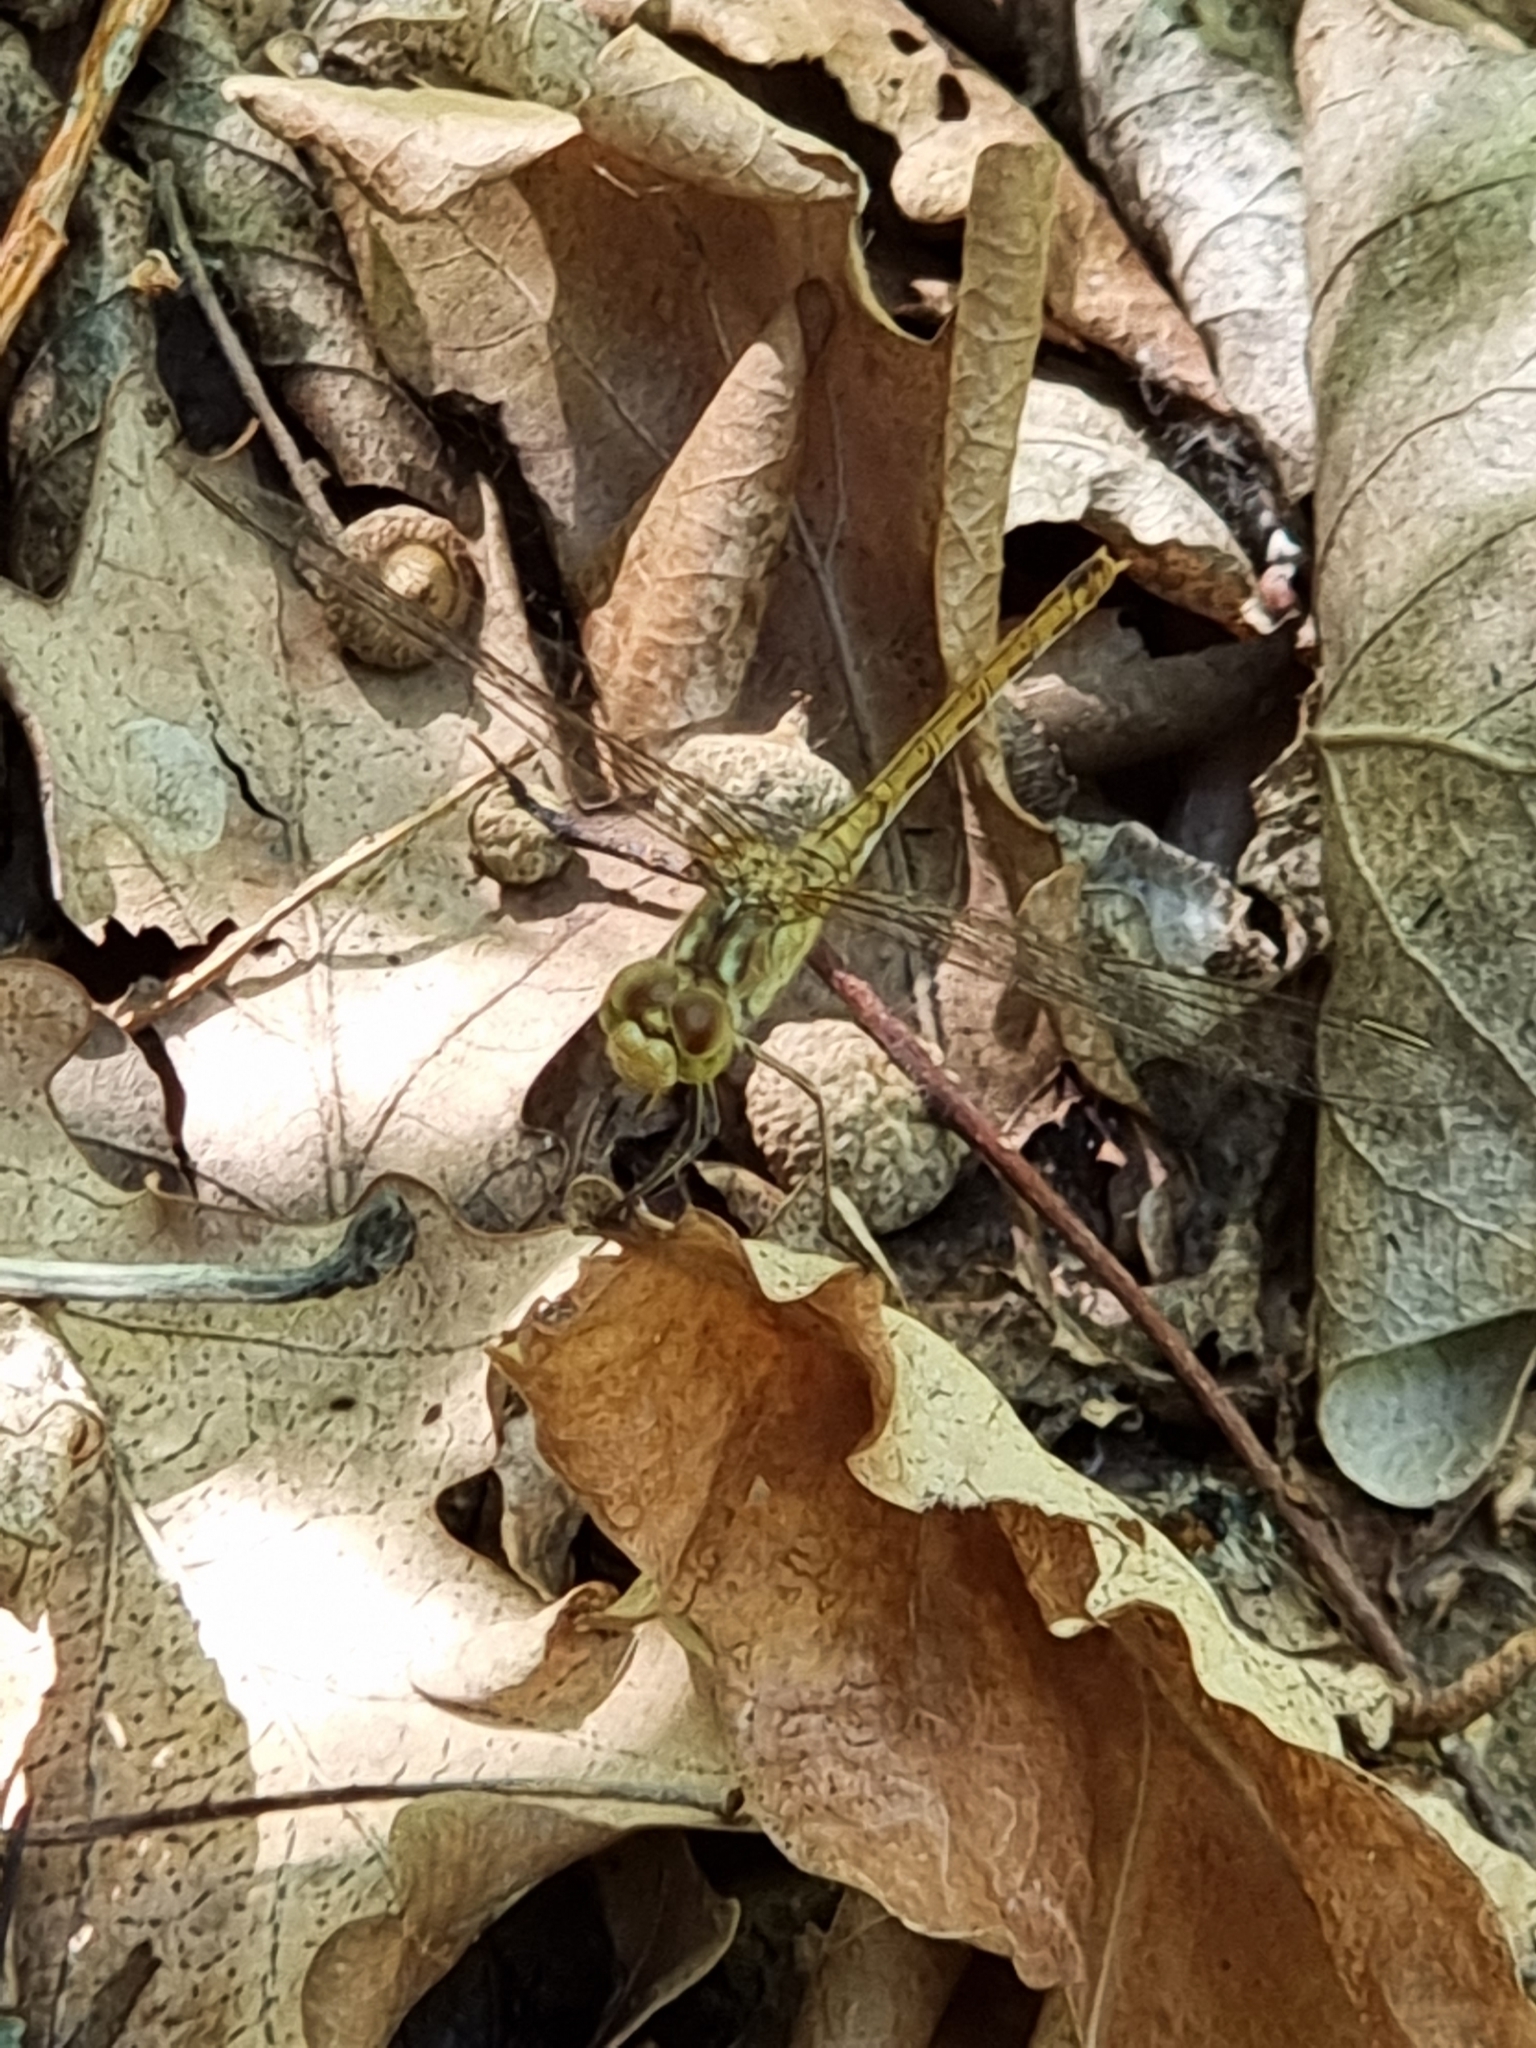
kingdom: Animalia
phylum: Arthropoda
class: Insecta
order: Odonata
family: Libellulidae
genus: Sympetrum
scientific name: Sympetrum meridionale
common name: Southern darter
